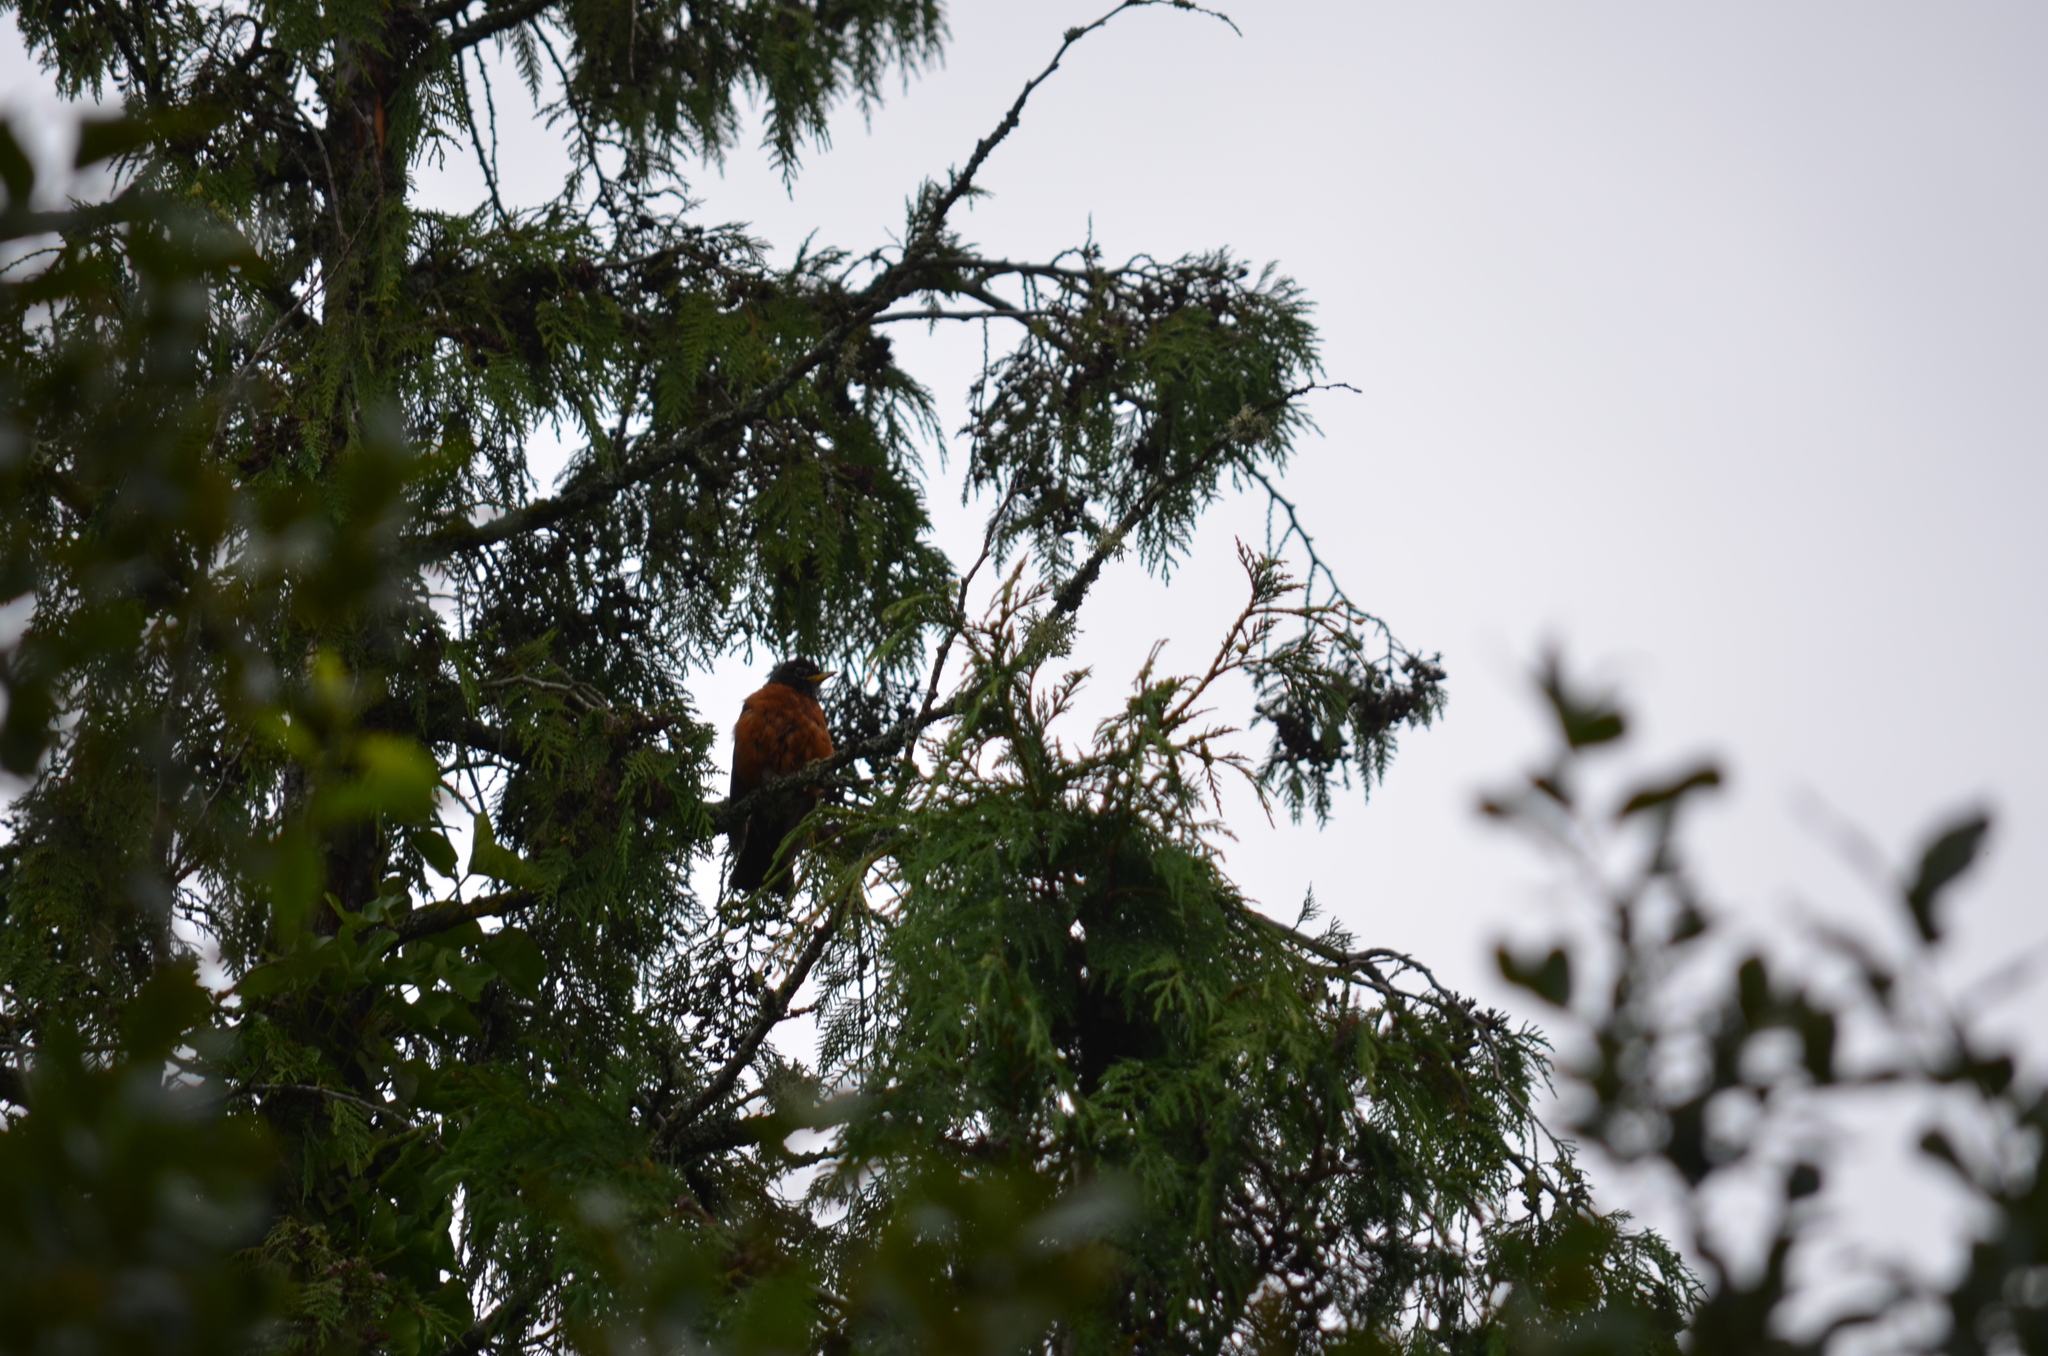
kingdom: Animalia
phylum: Chordata
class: Aves
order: Passeriformes
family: Turdidae
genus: Turdus
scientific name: Turdus migratorius
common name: American robin
